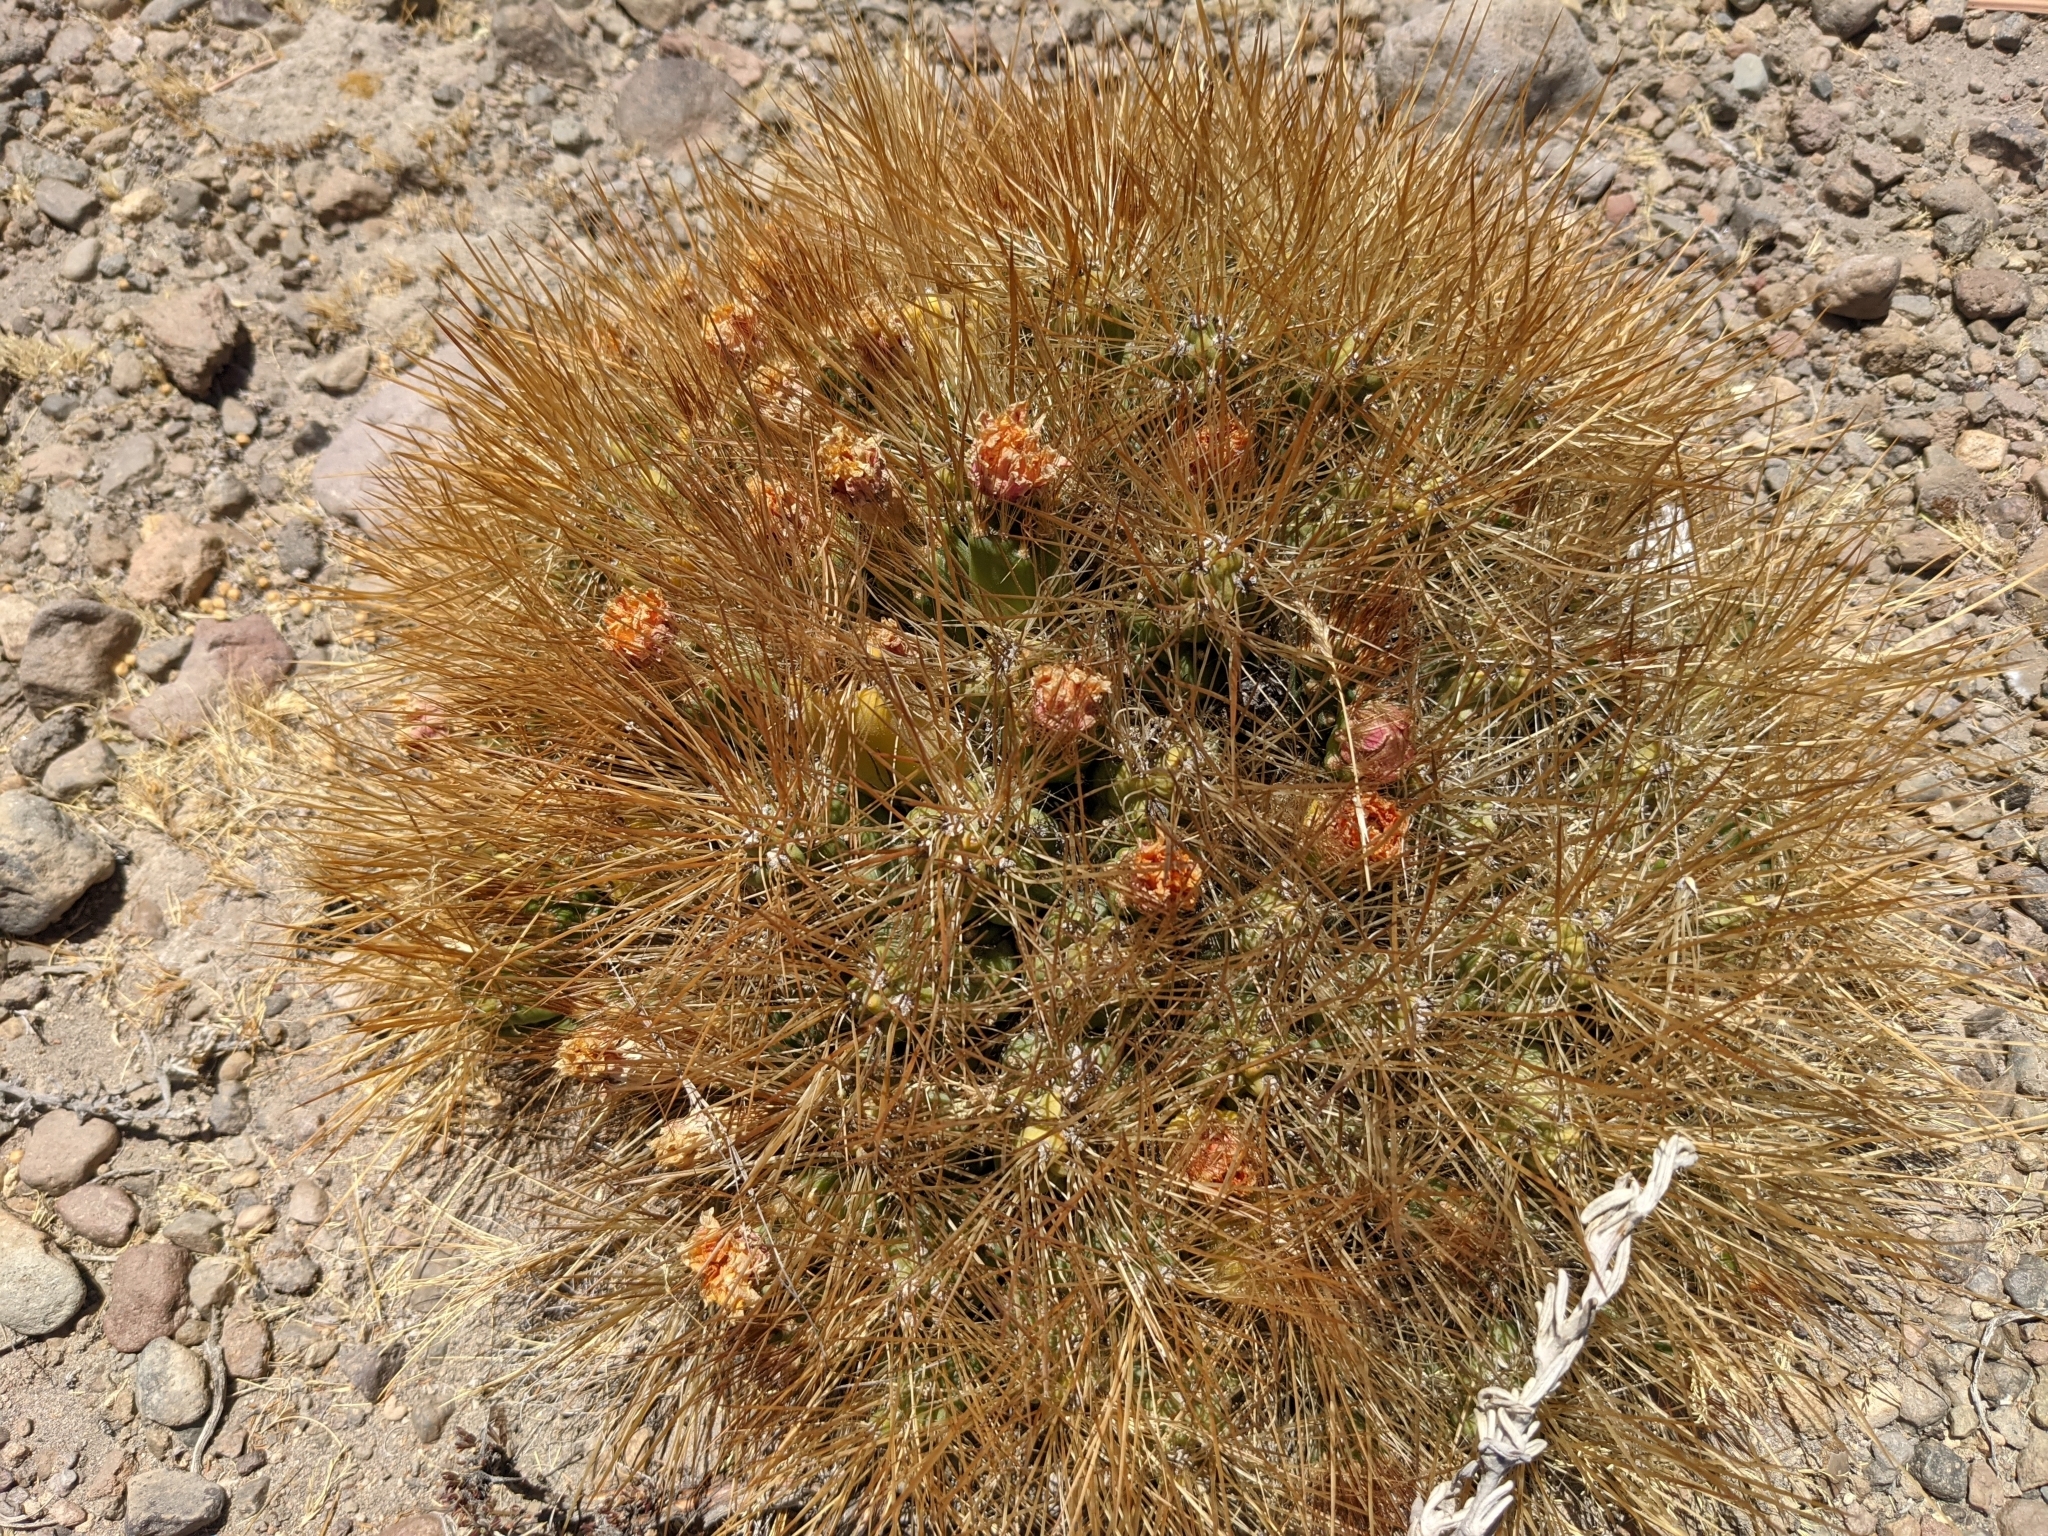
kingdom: Plantae
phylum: Tracheophyta
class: Magnoliopsida
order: Caryophyllales
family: Cactaceae
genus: Cumulopuntia
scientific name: Cumulopuntia glomerata
